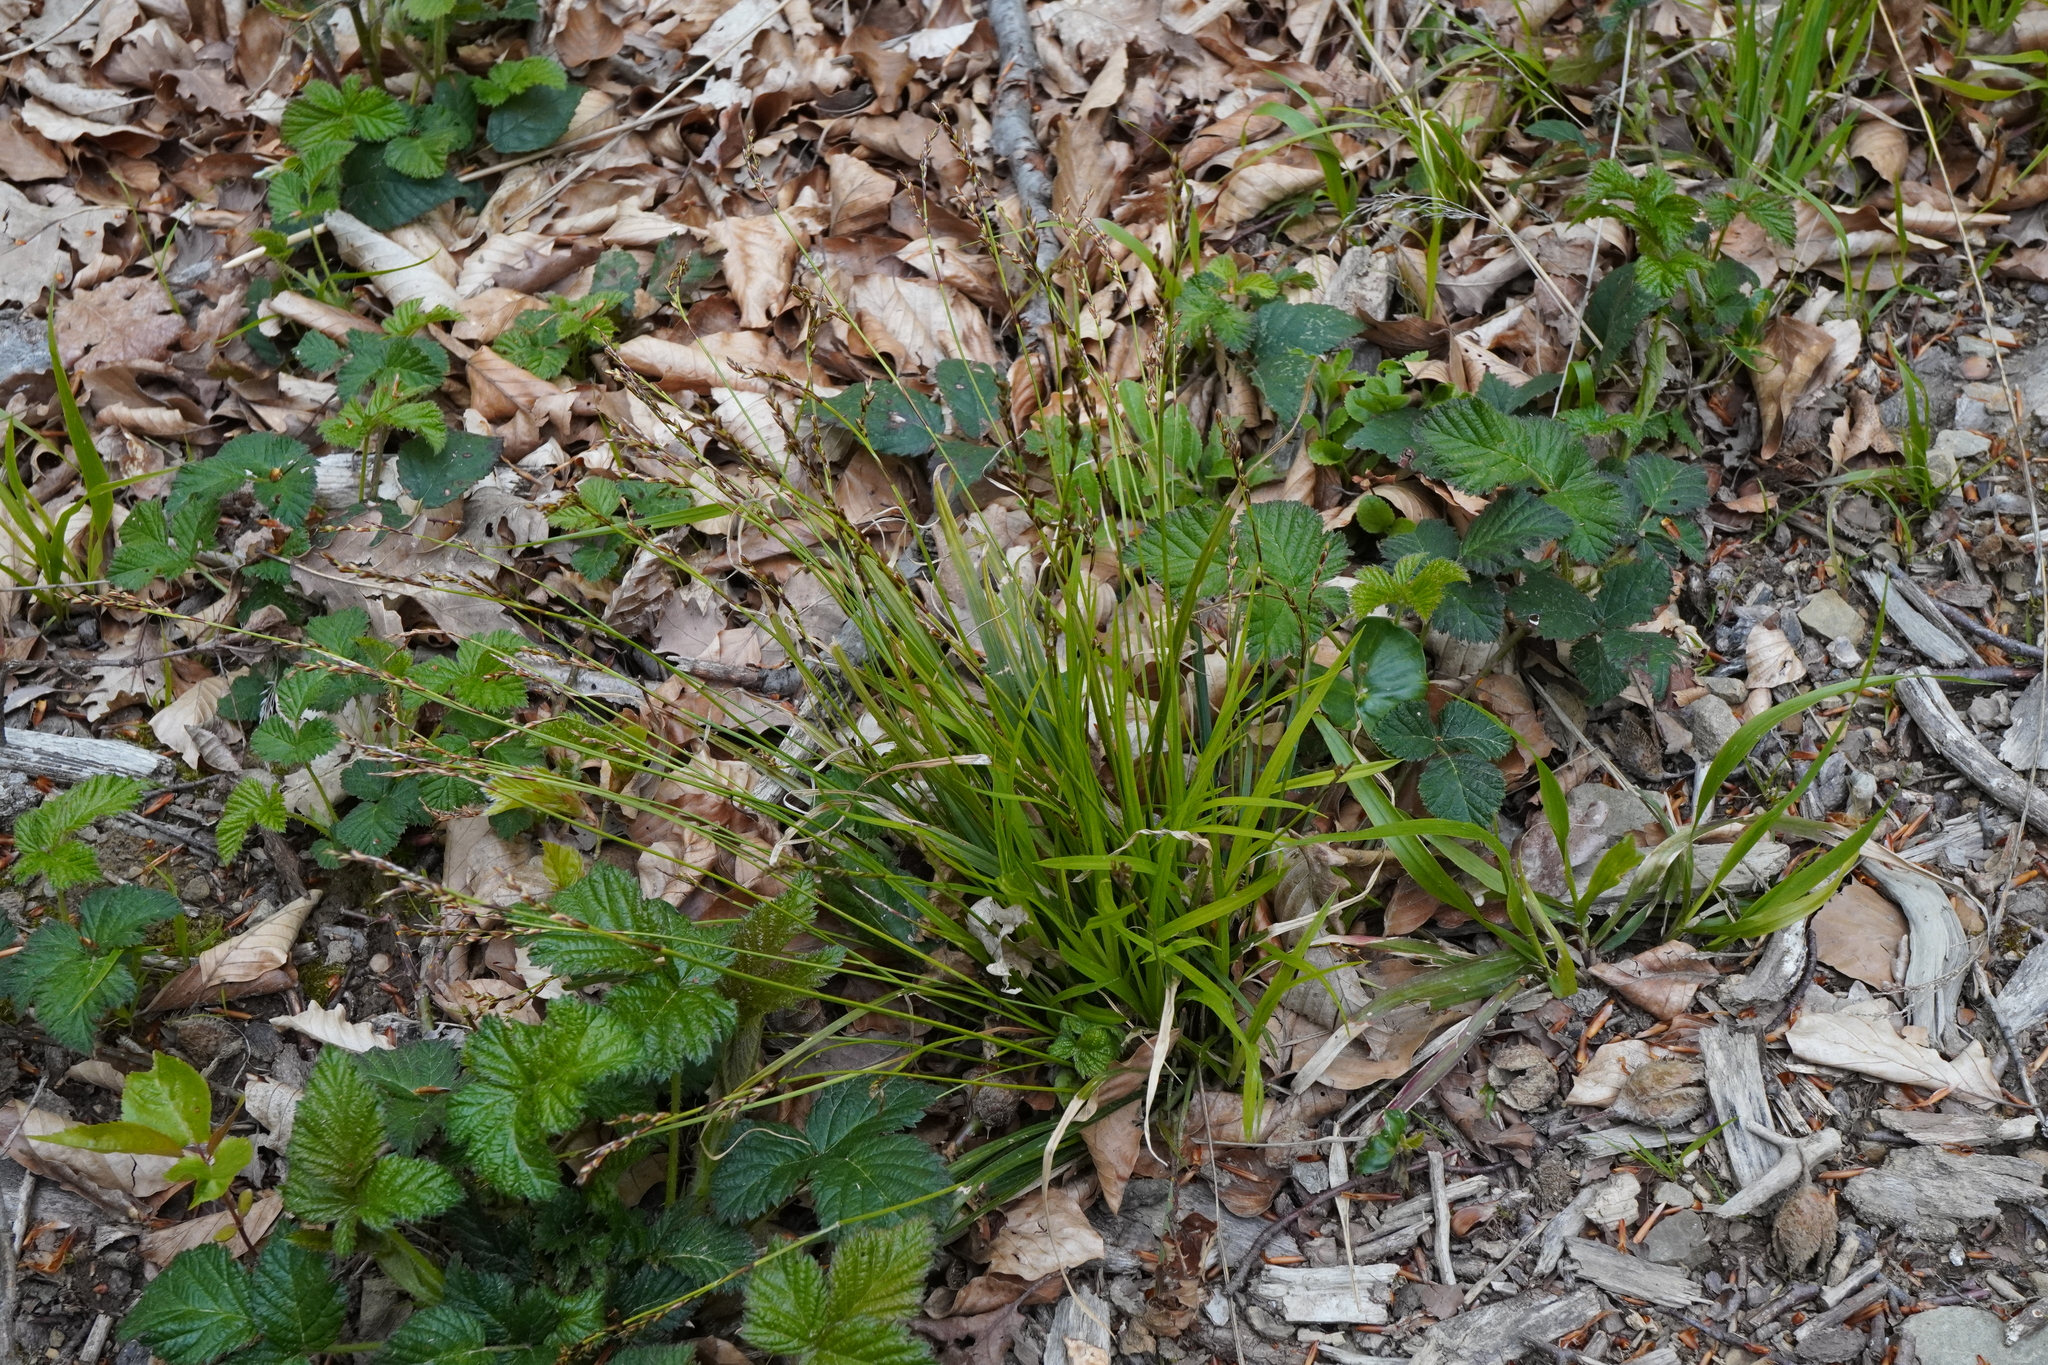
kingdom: Plantae
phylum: Tracheophyta
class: Liliopsida
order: Poales
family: Cyperaceae
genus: Carex
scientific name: Carex digitata
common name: Fingered sedge
